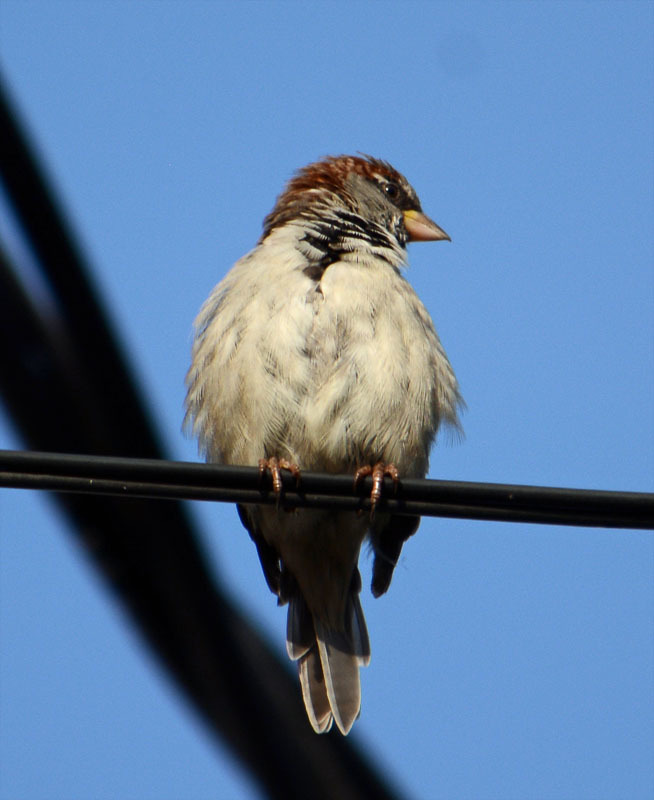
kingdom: Animalia
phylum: Chordata
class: Aves
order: Passeriformes
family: Passeridae
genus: Passer
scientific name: Passer domesticus
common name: House sparrow
